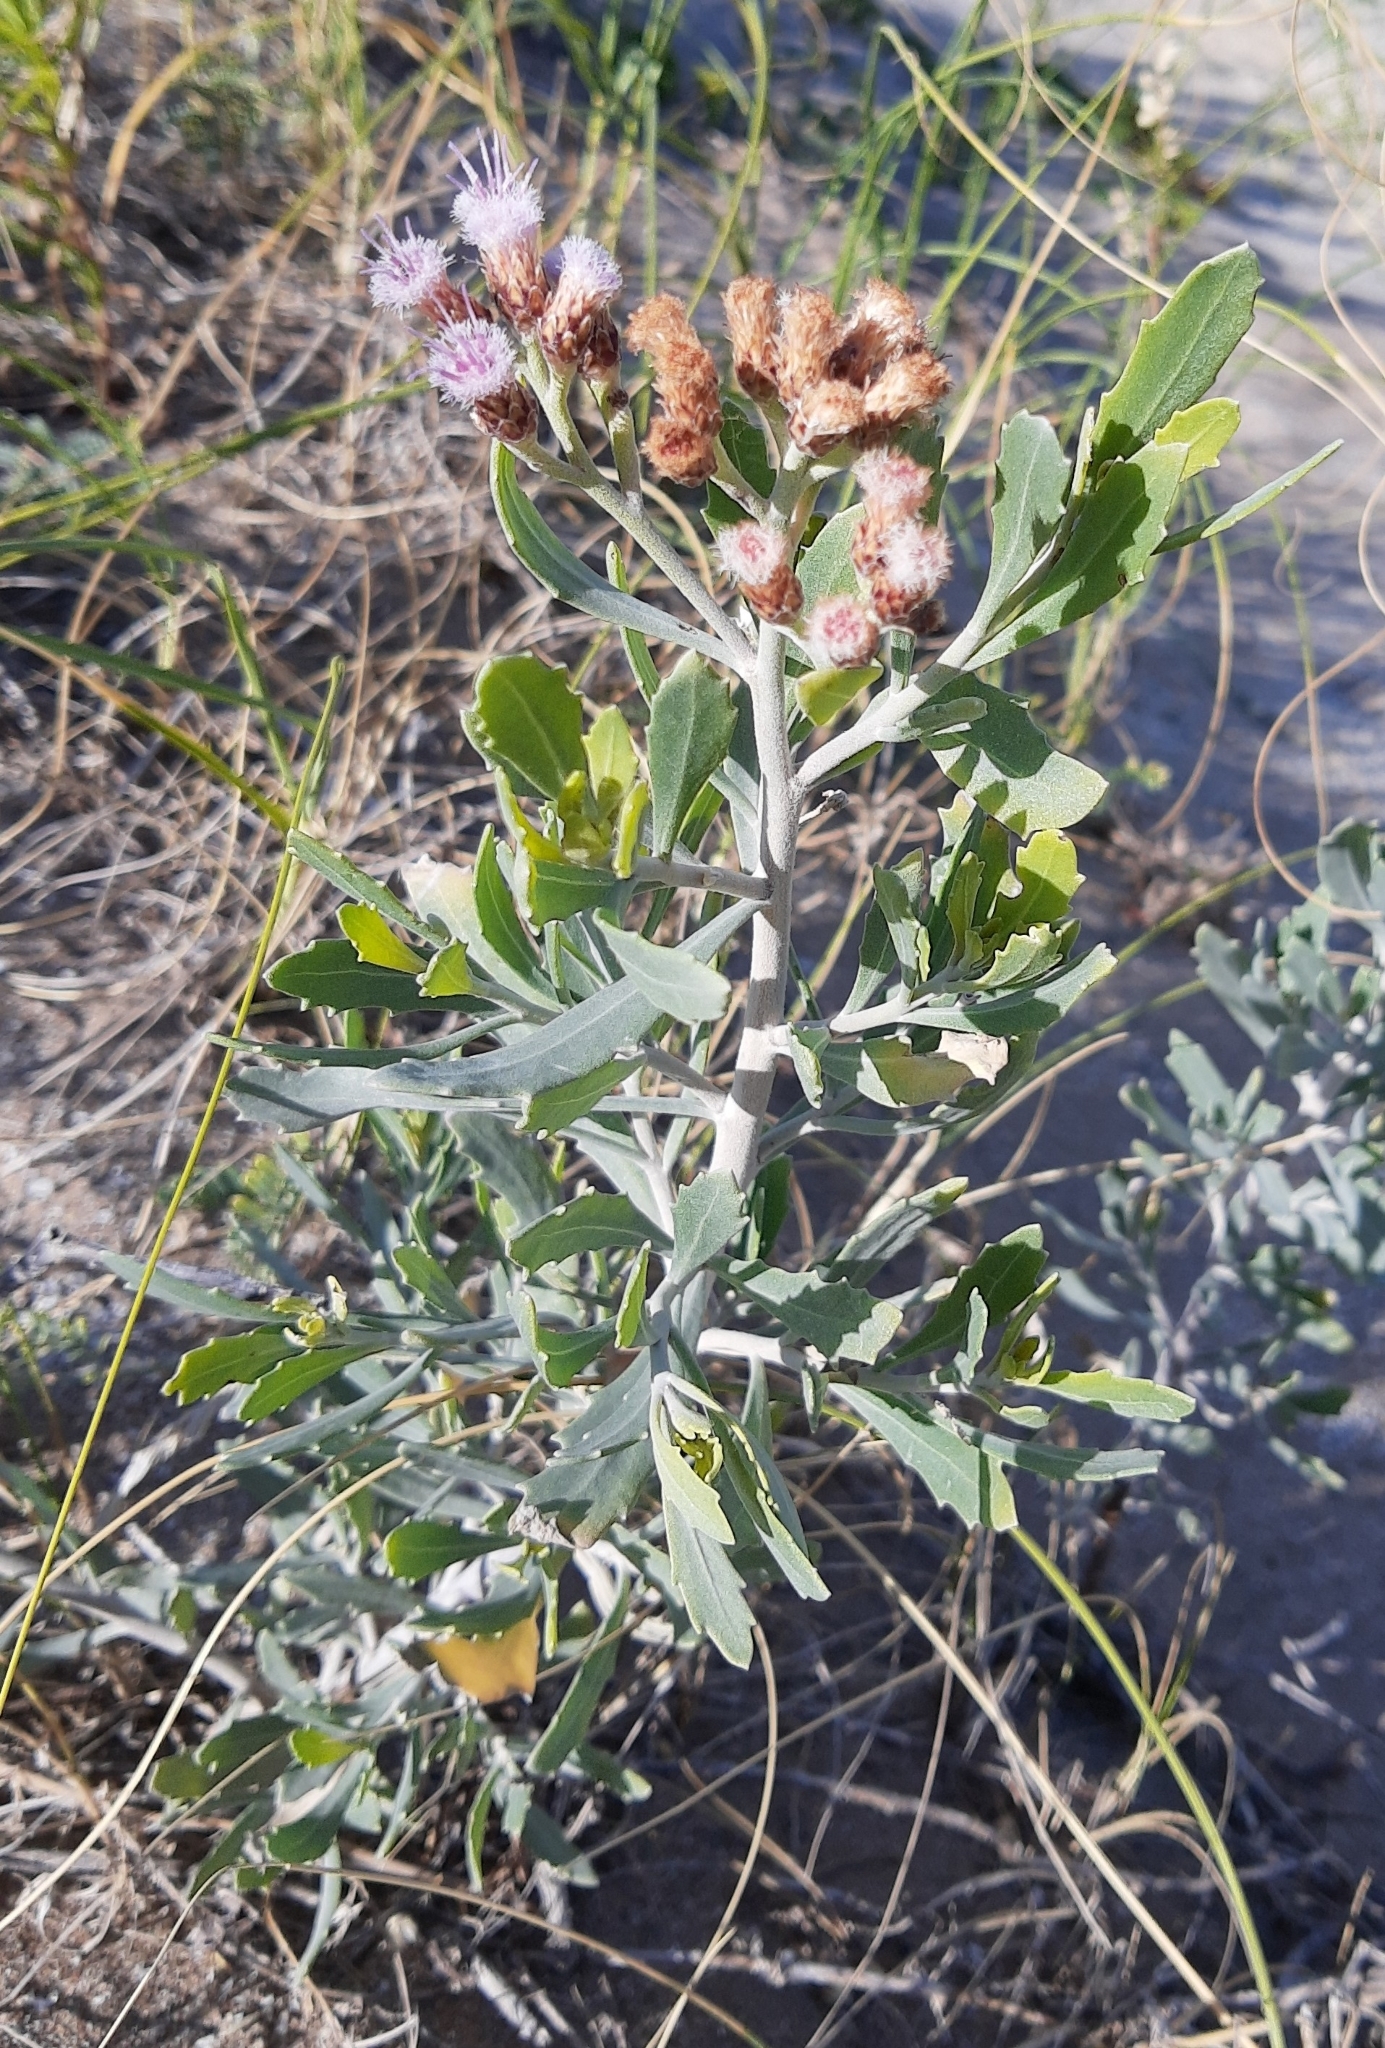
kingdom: Plantae
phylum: Tracheophyta
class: Magnoliopsida
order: Asterales
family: Asteraceae
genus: Tessaria
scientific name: Tessaria absinthioides
